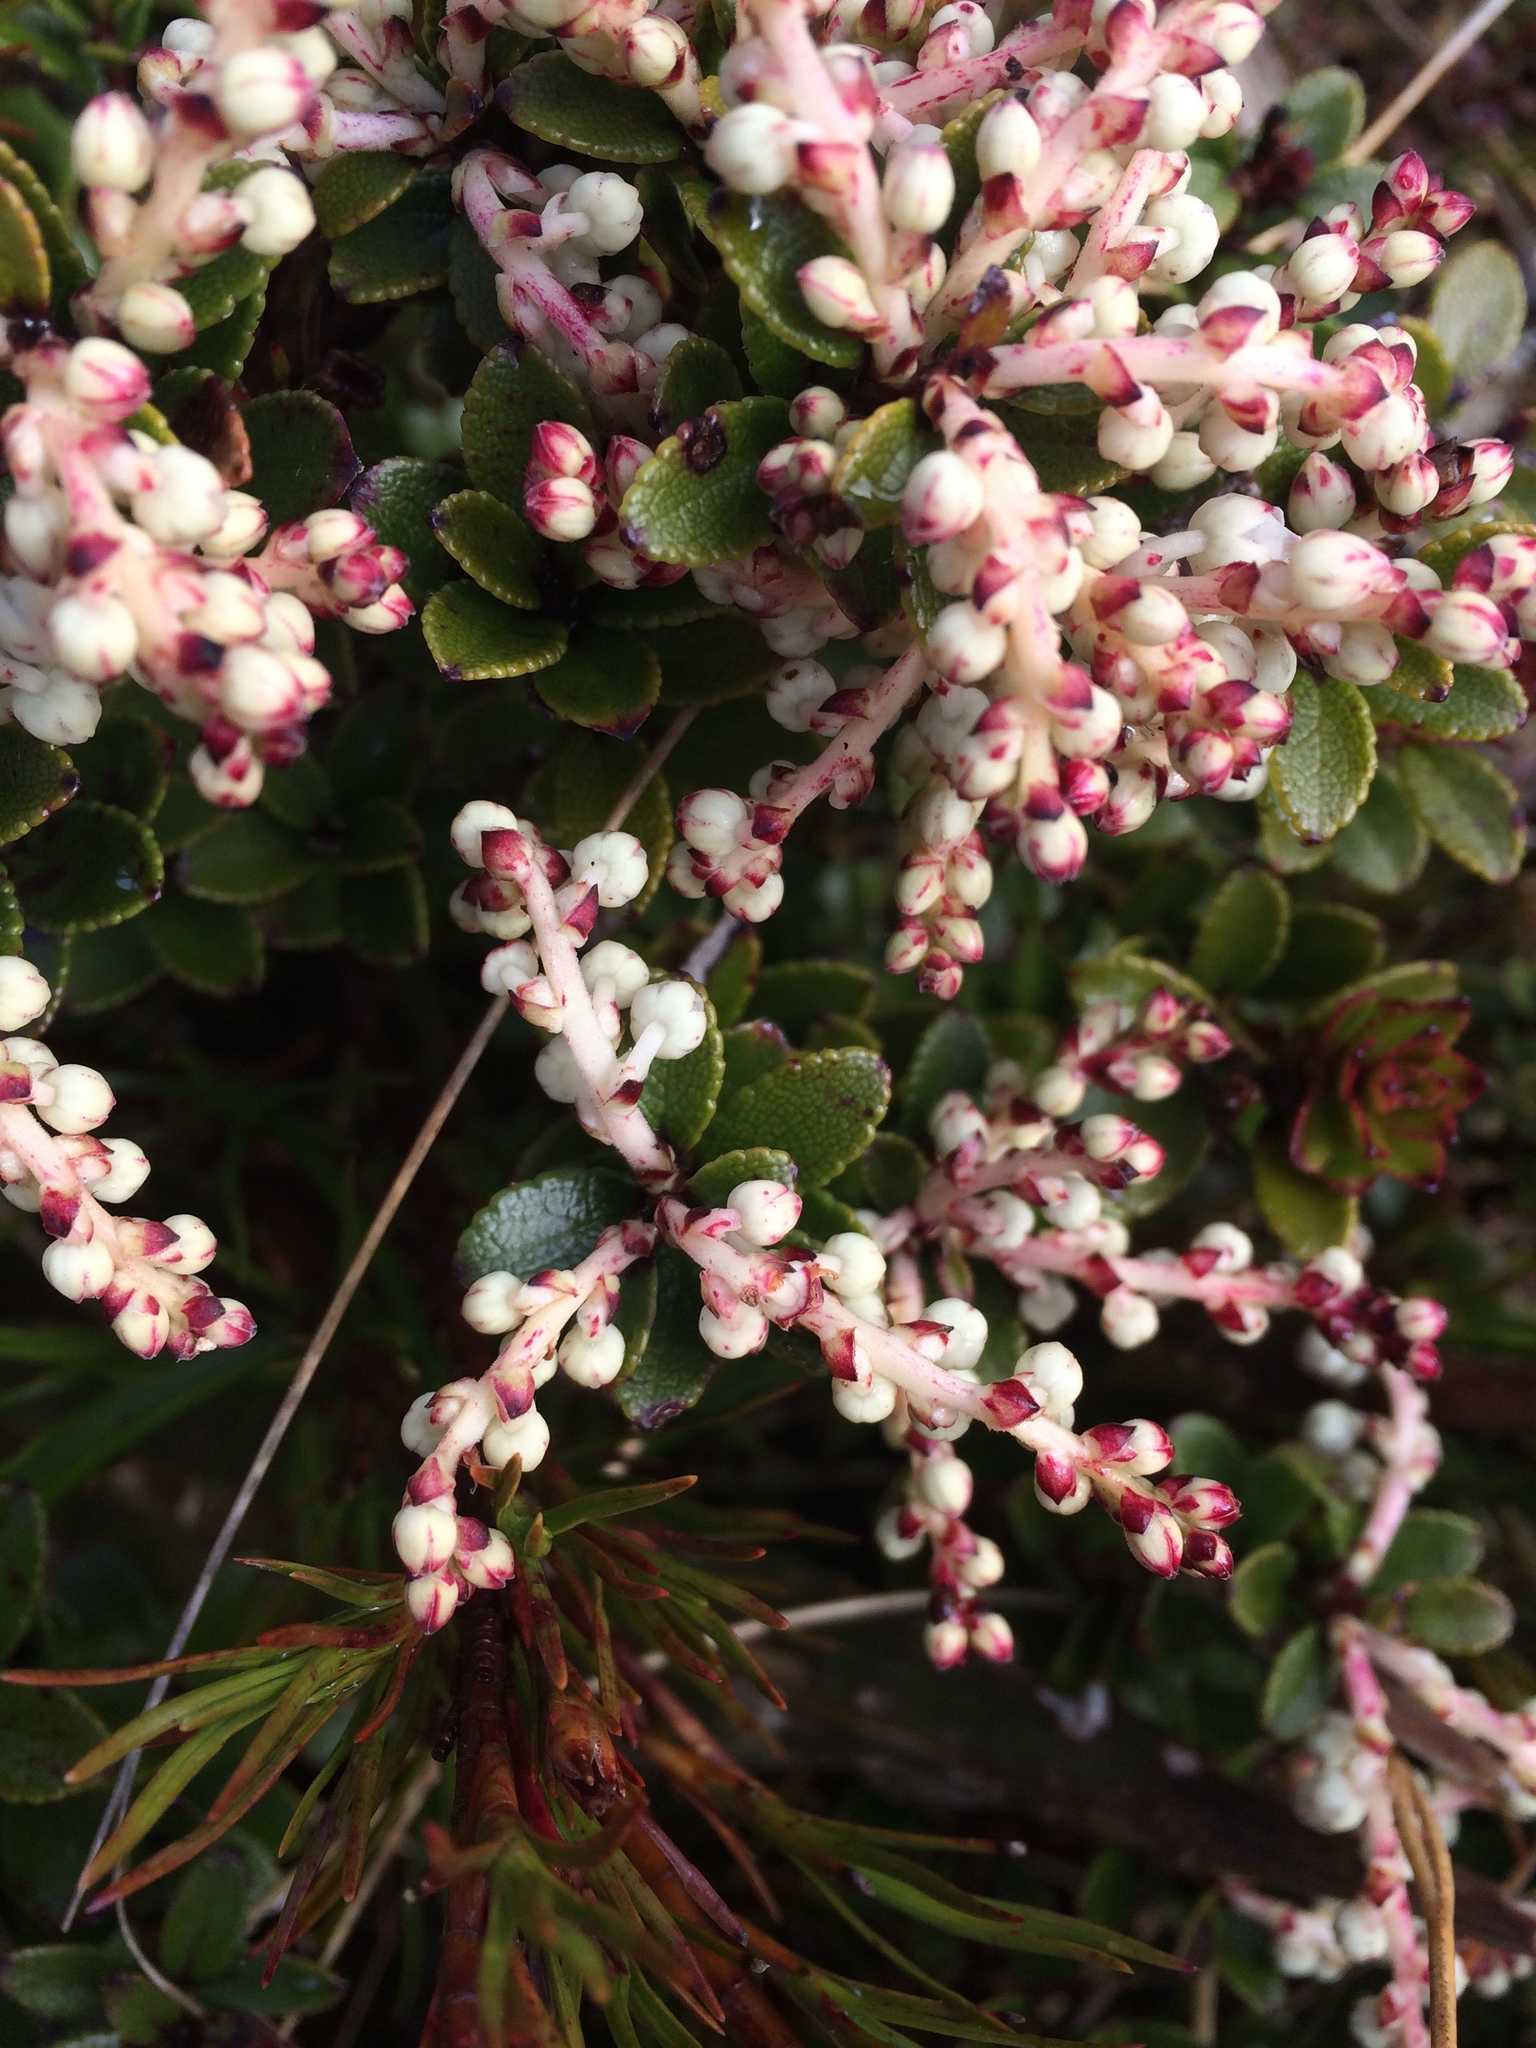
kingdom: Plantae
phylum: Tracheophyta
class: Magnoliopsida
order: Ericales
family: Ericaceae
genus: Gaultheria
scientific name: Gaultheria crassa
